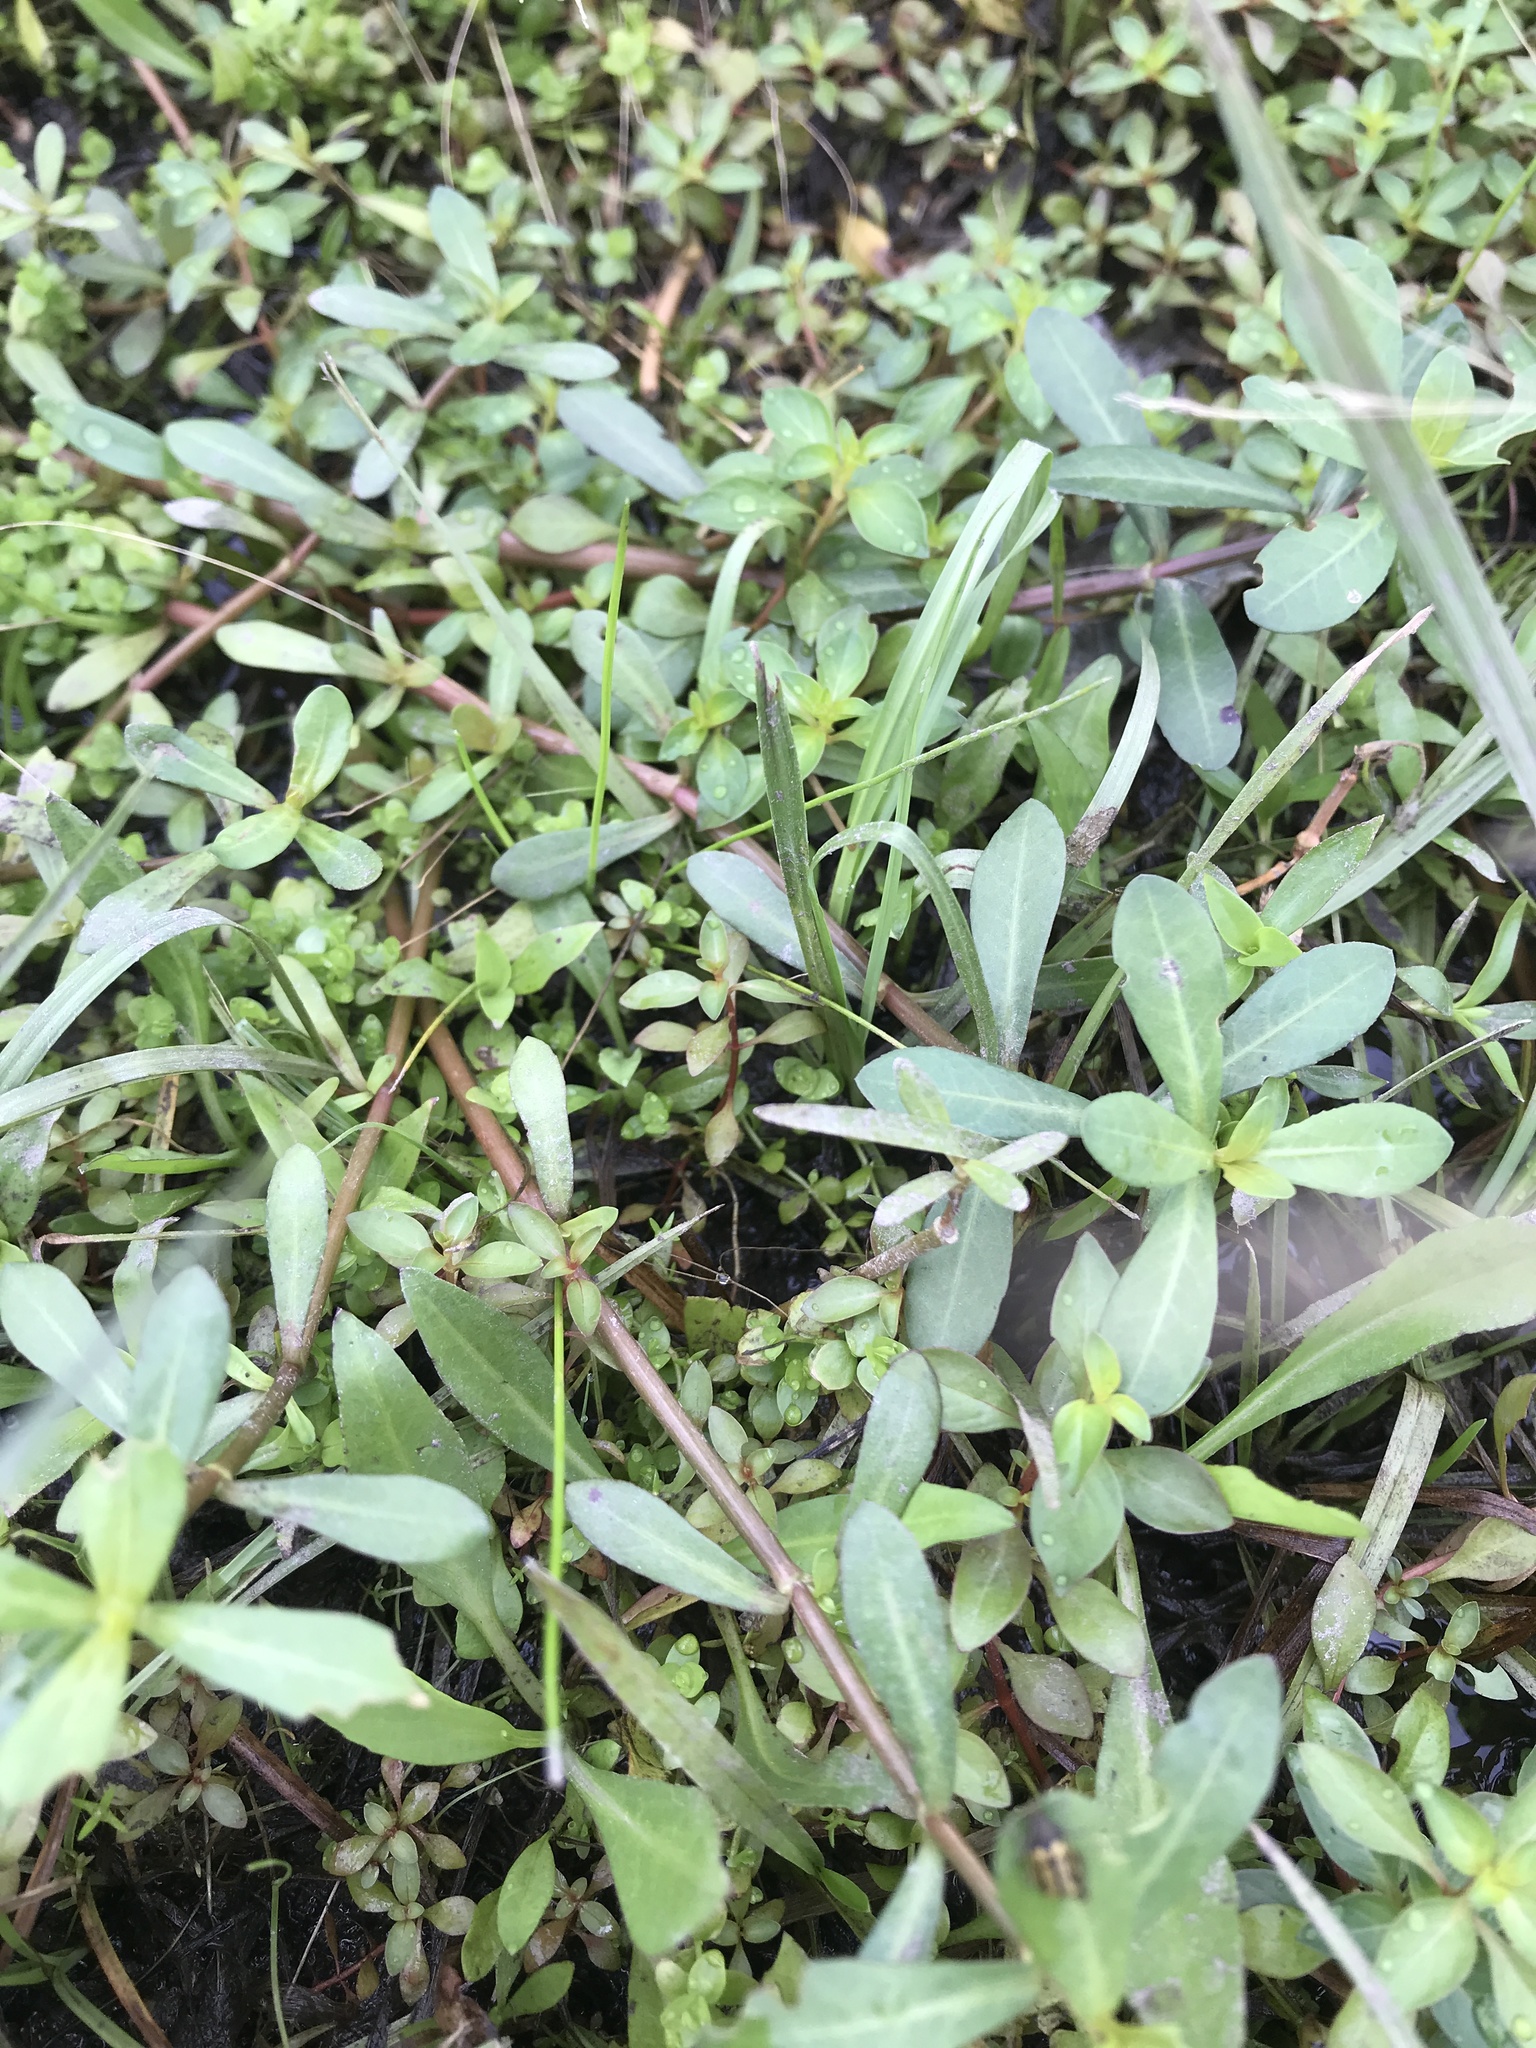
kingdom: Plantae
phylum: Tracheophyta
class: Magnoliopsida
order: Caryophyllales
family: Amaranthaceae
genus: Alternanthera
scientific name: Alternanthera philoxeroides
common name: Alligatorweed
